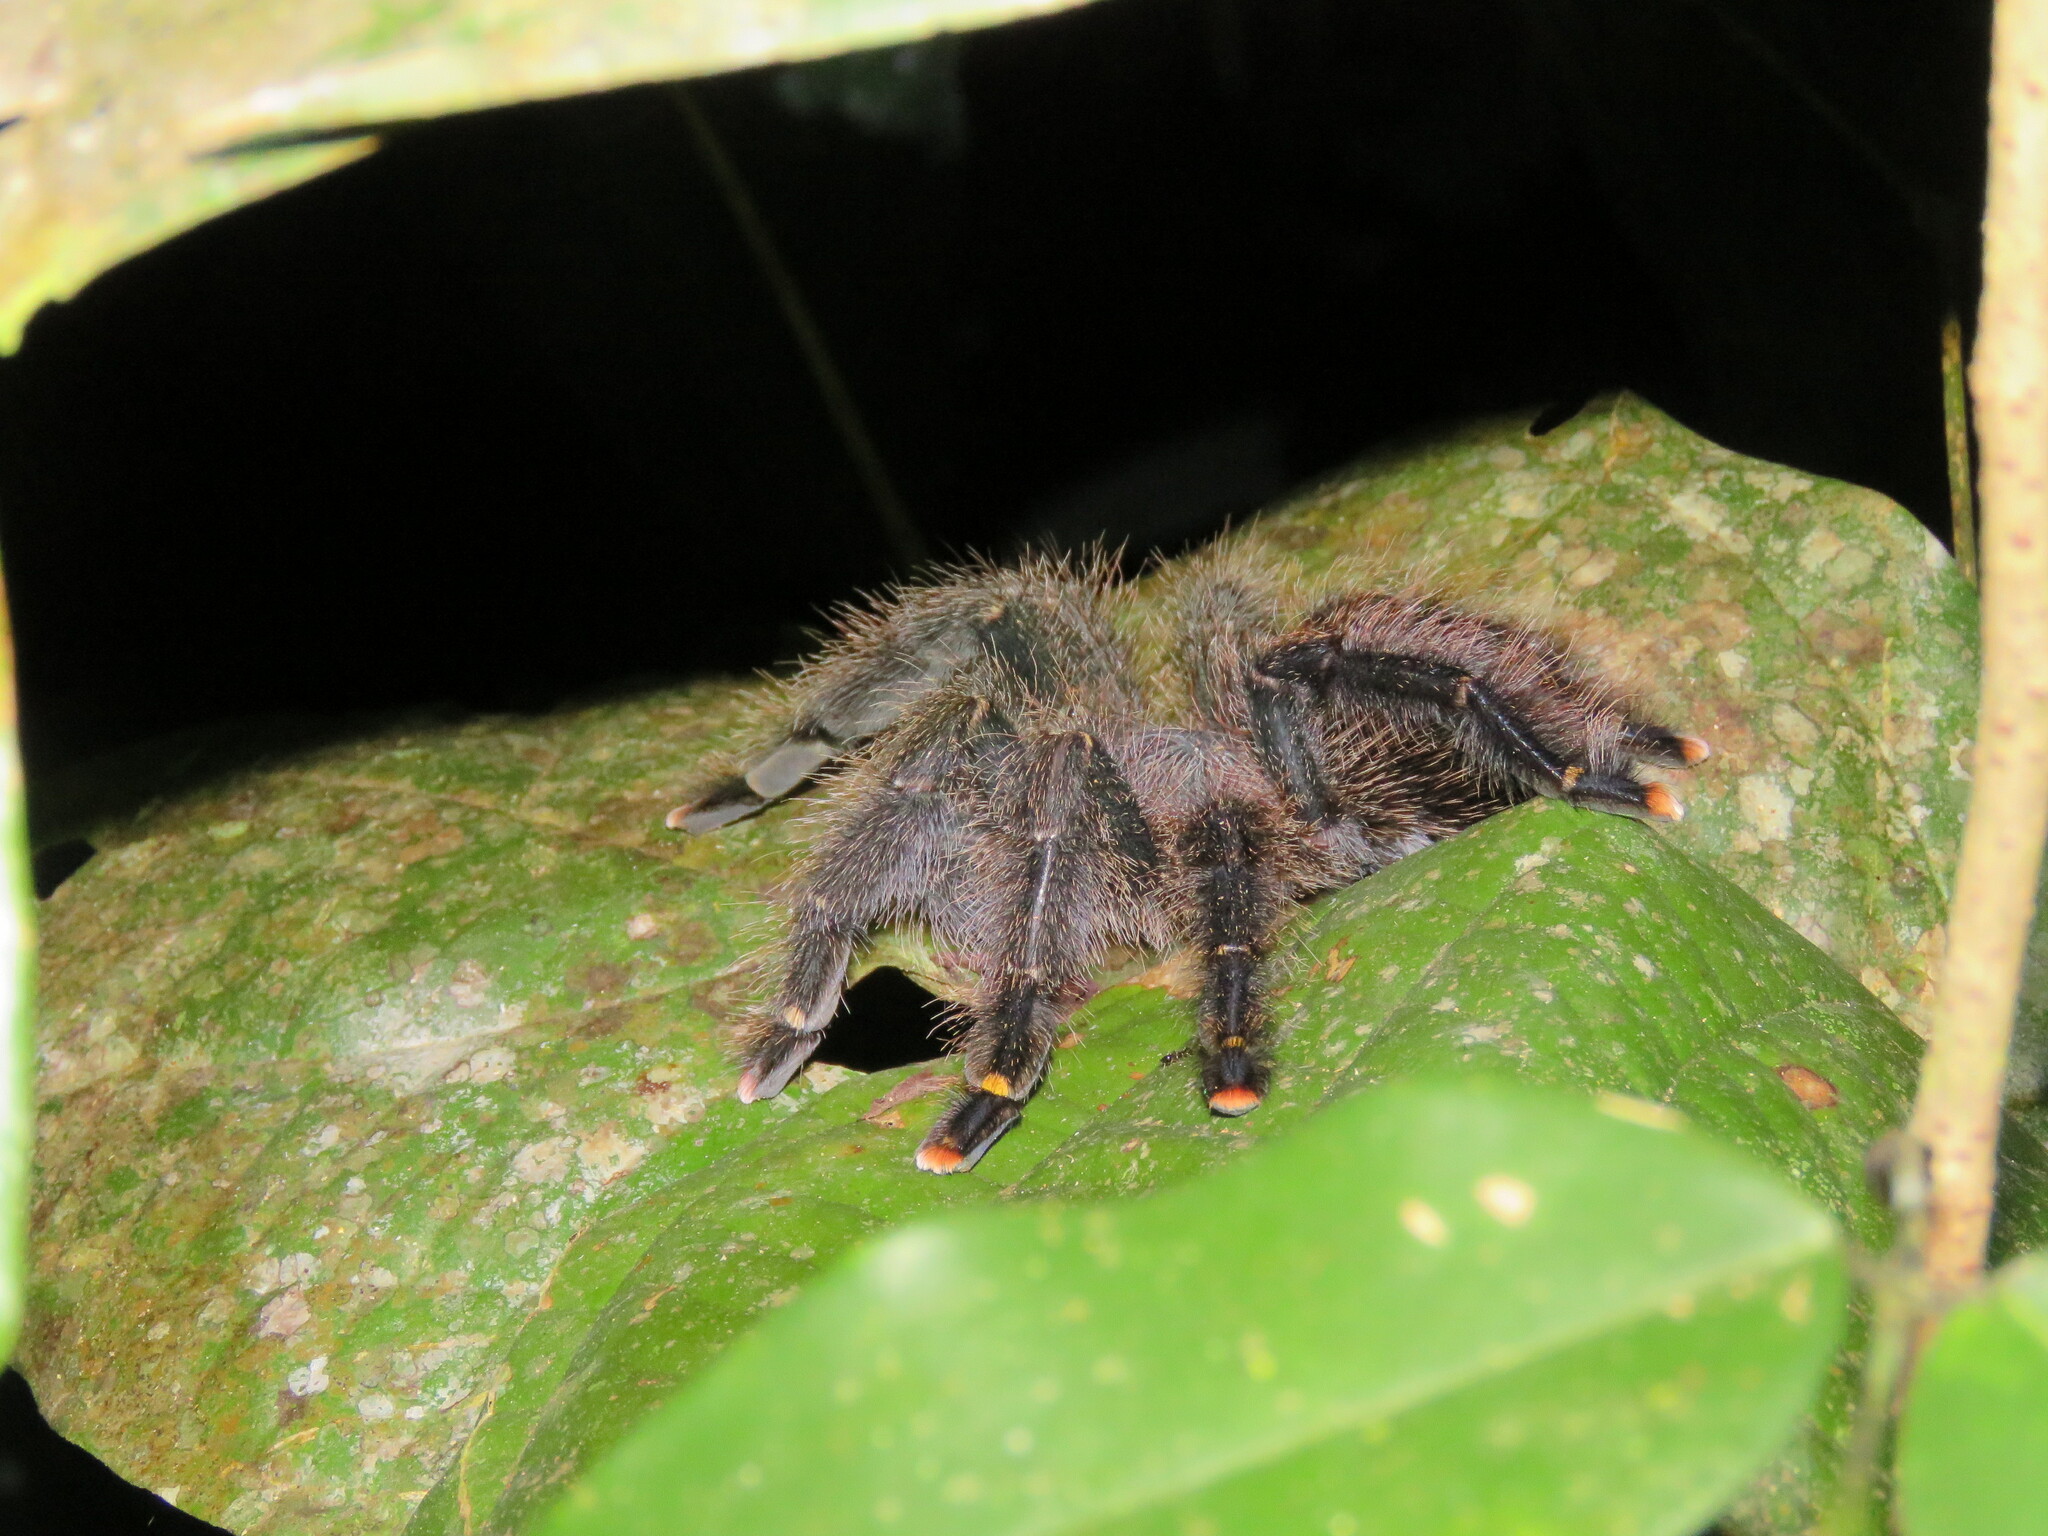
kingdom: Animalia
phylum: Arthropoda
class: Arachnida
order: Araneae
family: Theraphosidae
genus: Avicularia
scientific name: Avicularia juruensis
